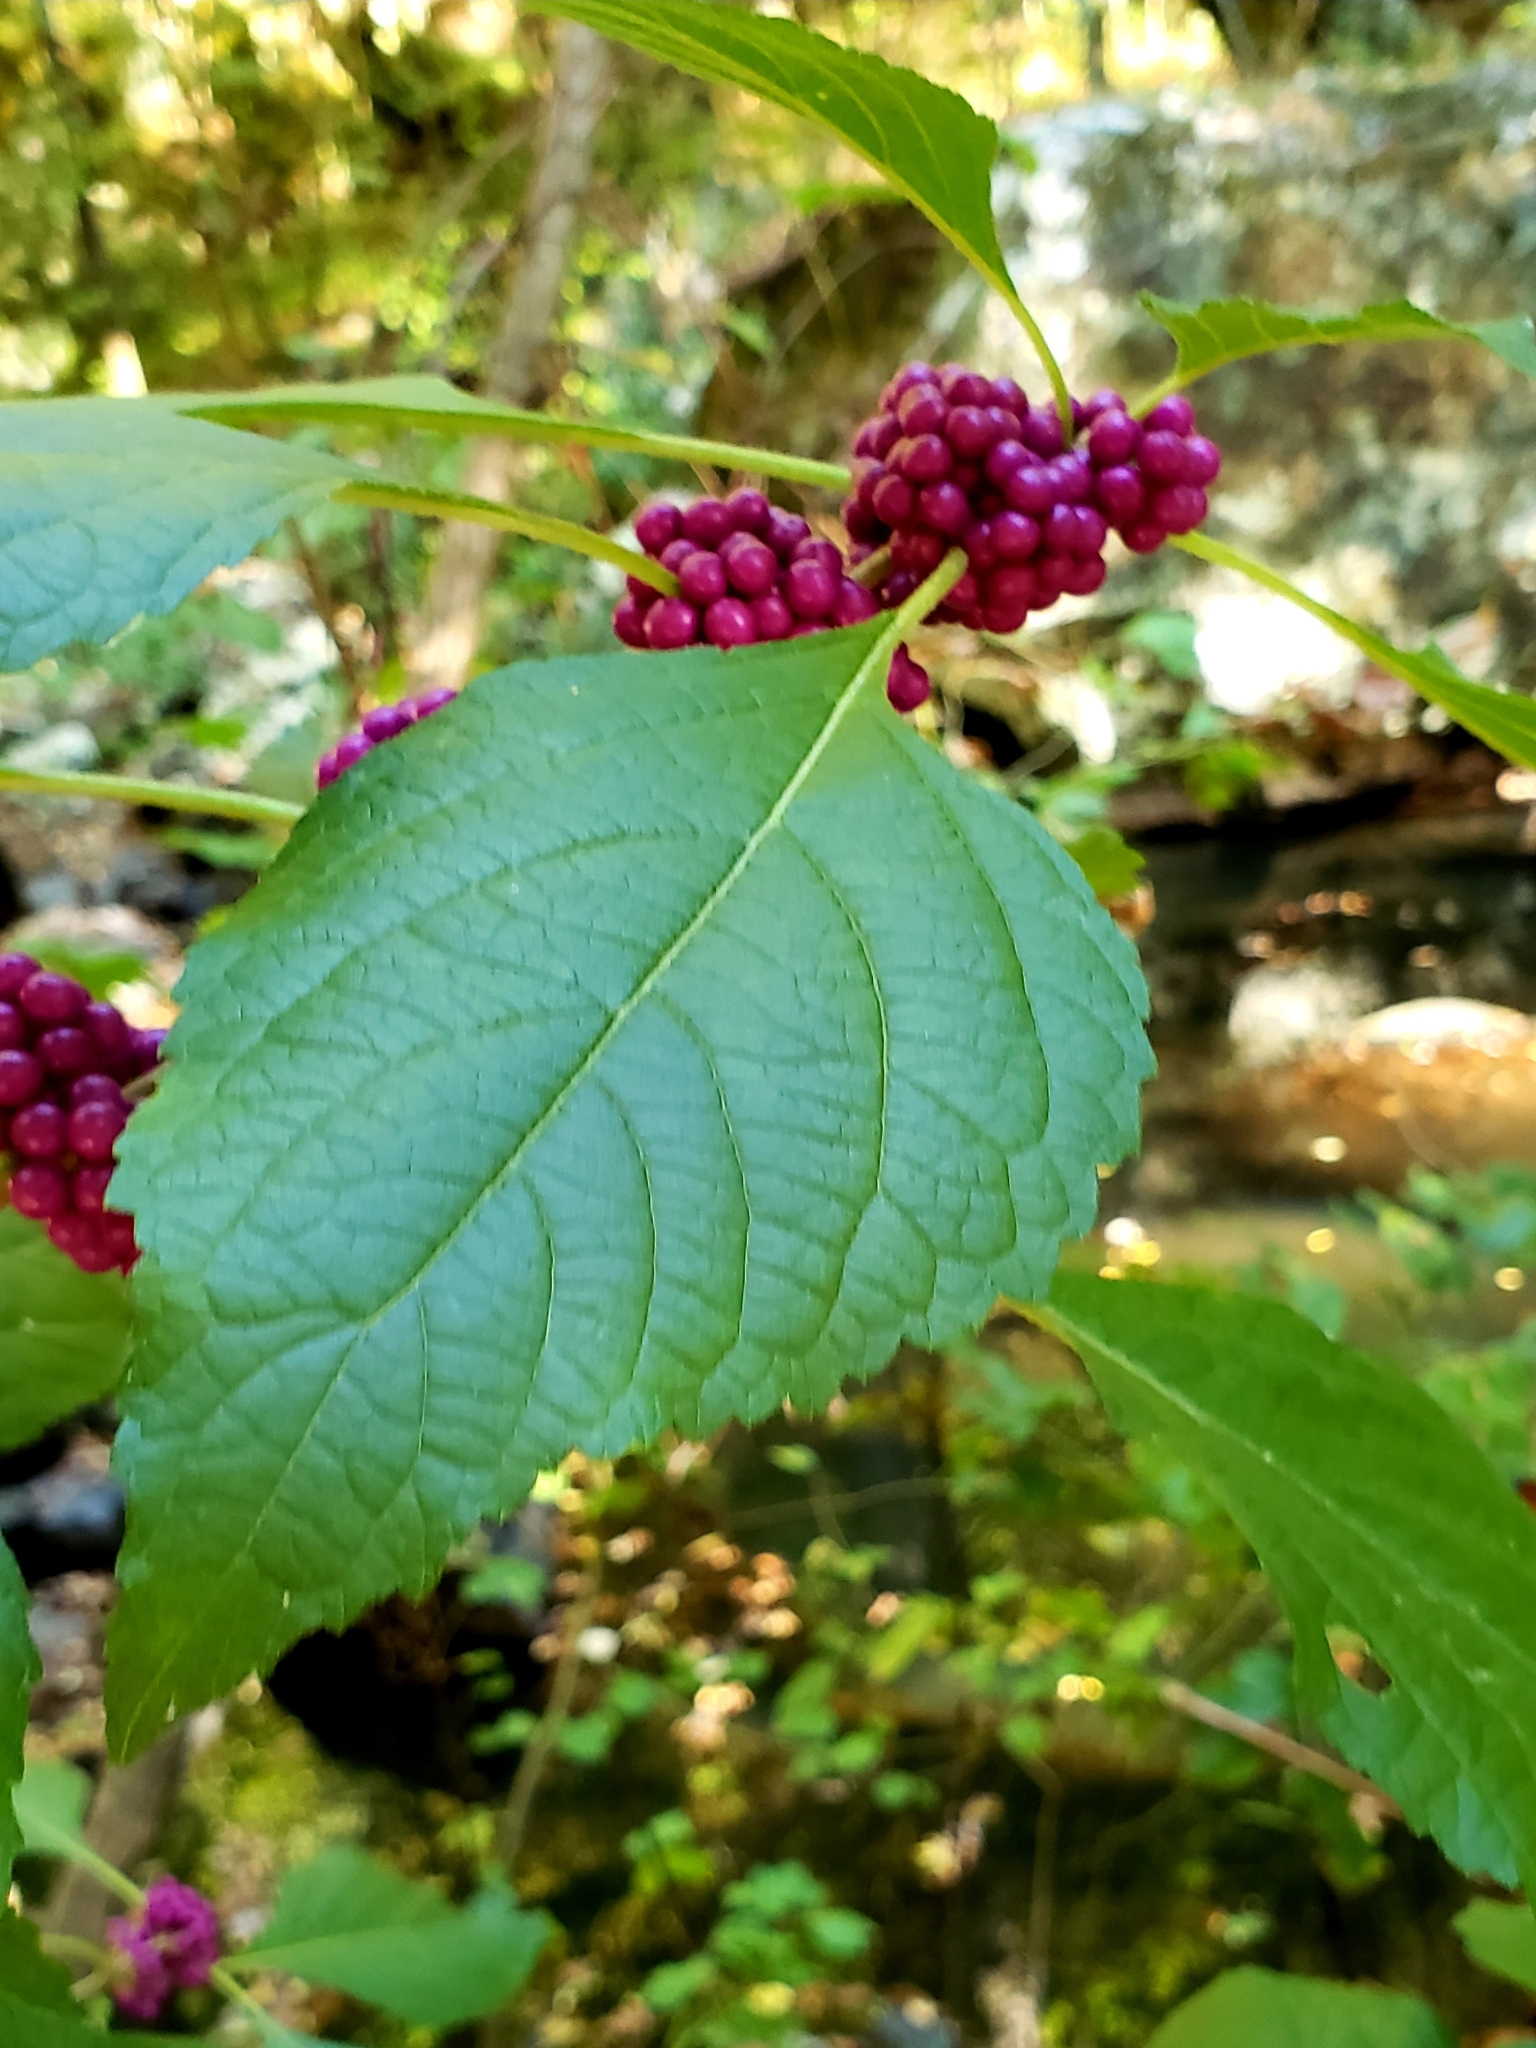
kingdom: Plantae
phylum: Tracheophyta
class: Magnoliopsida
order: Lamiales
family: Lamiaceae
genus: Callicarpa
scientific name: Callicarpa americana
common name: American beautyberry
